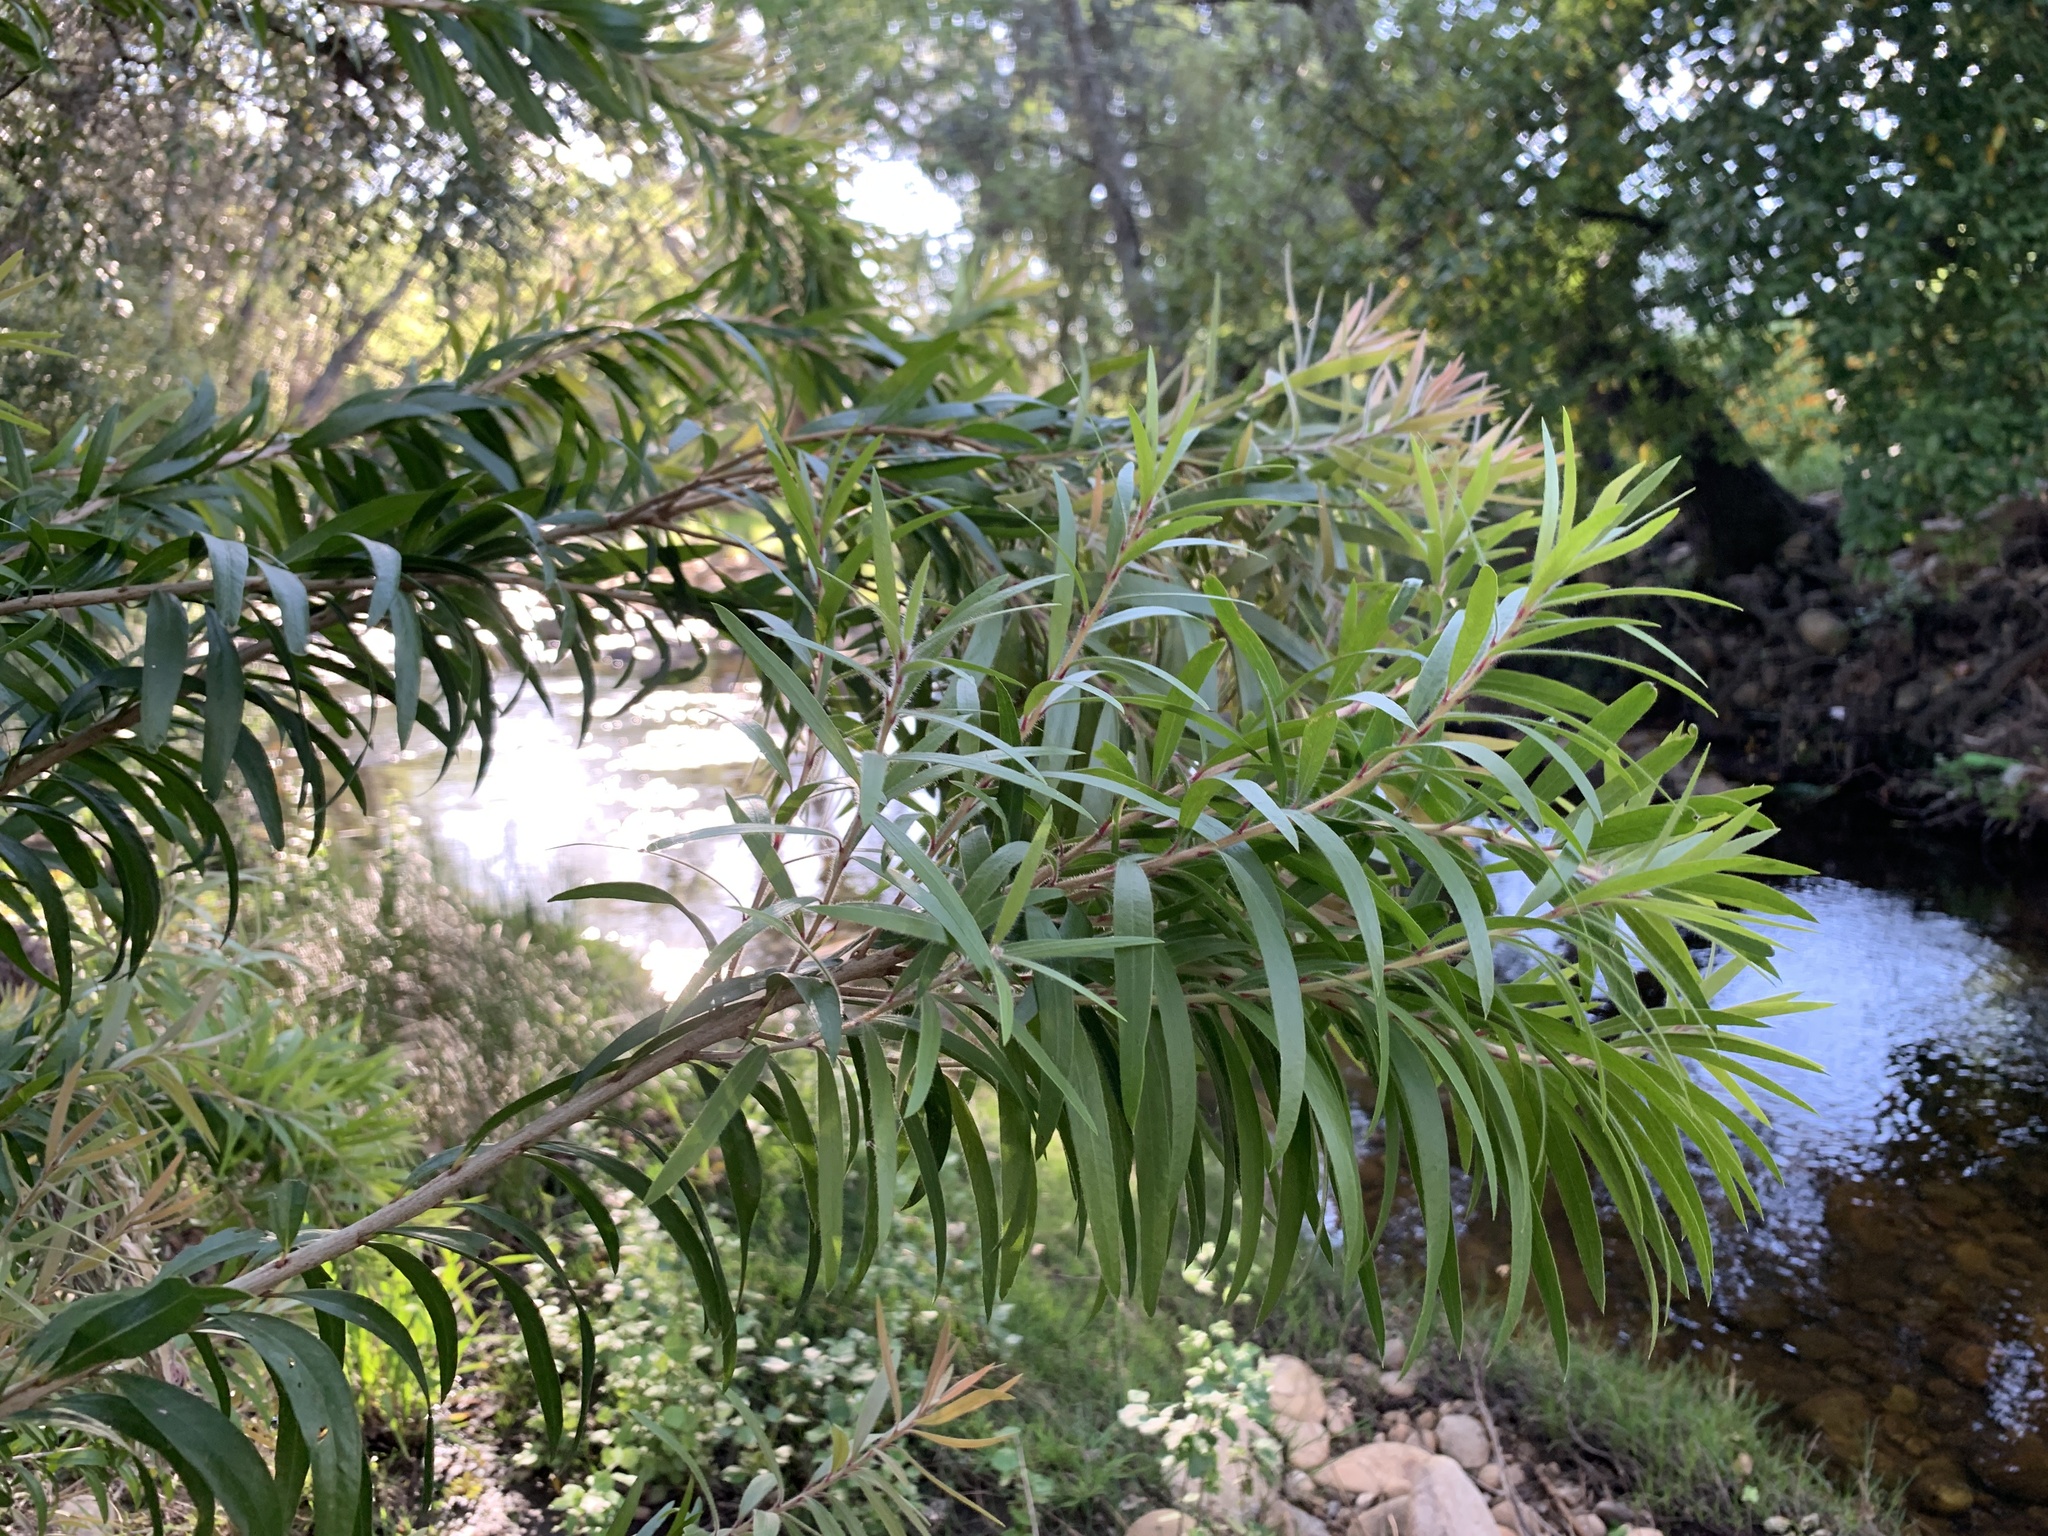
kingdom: Plantae
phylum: Tracheophyta
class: Magnoliopsida
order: Myrtales
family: Myrtaceae
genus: Callistemon
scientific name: Callistemon viminalis
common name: Drooping bottlebrush
